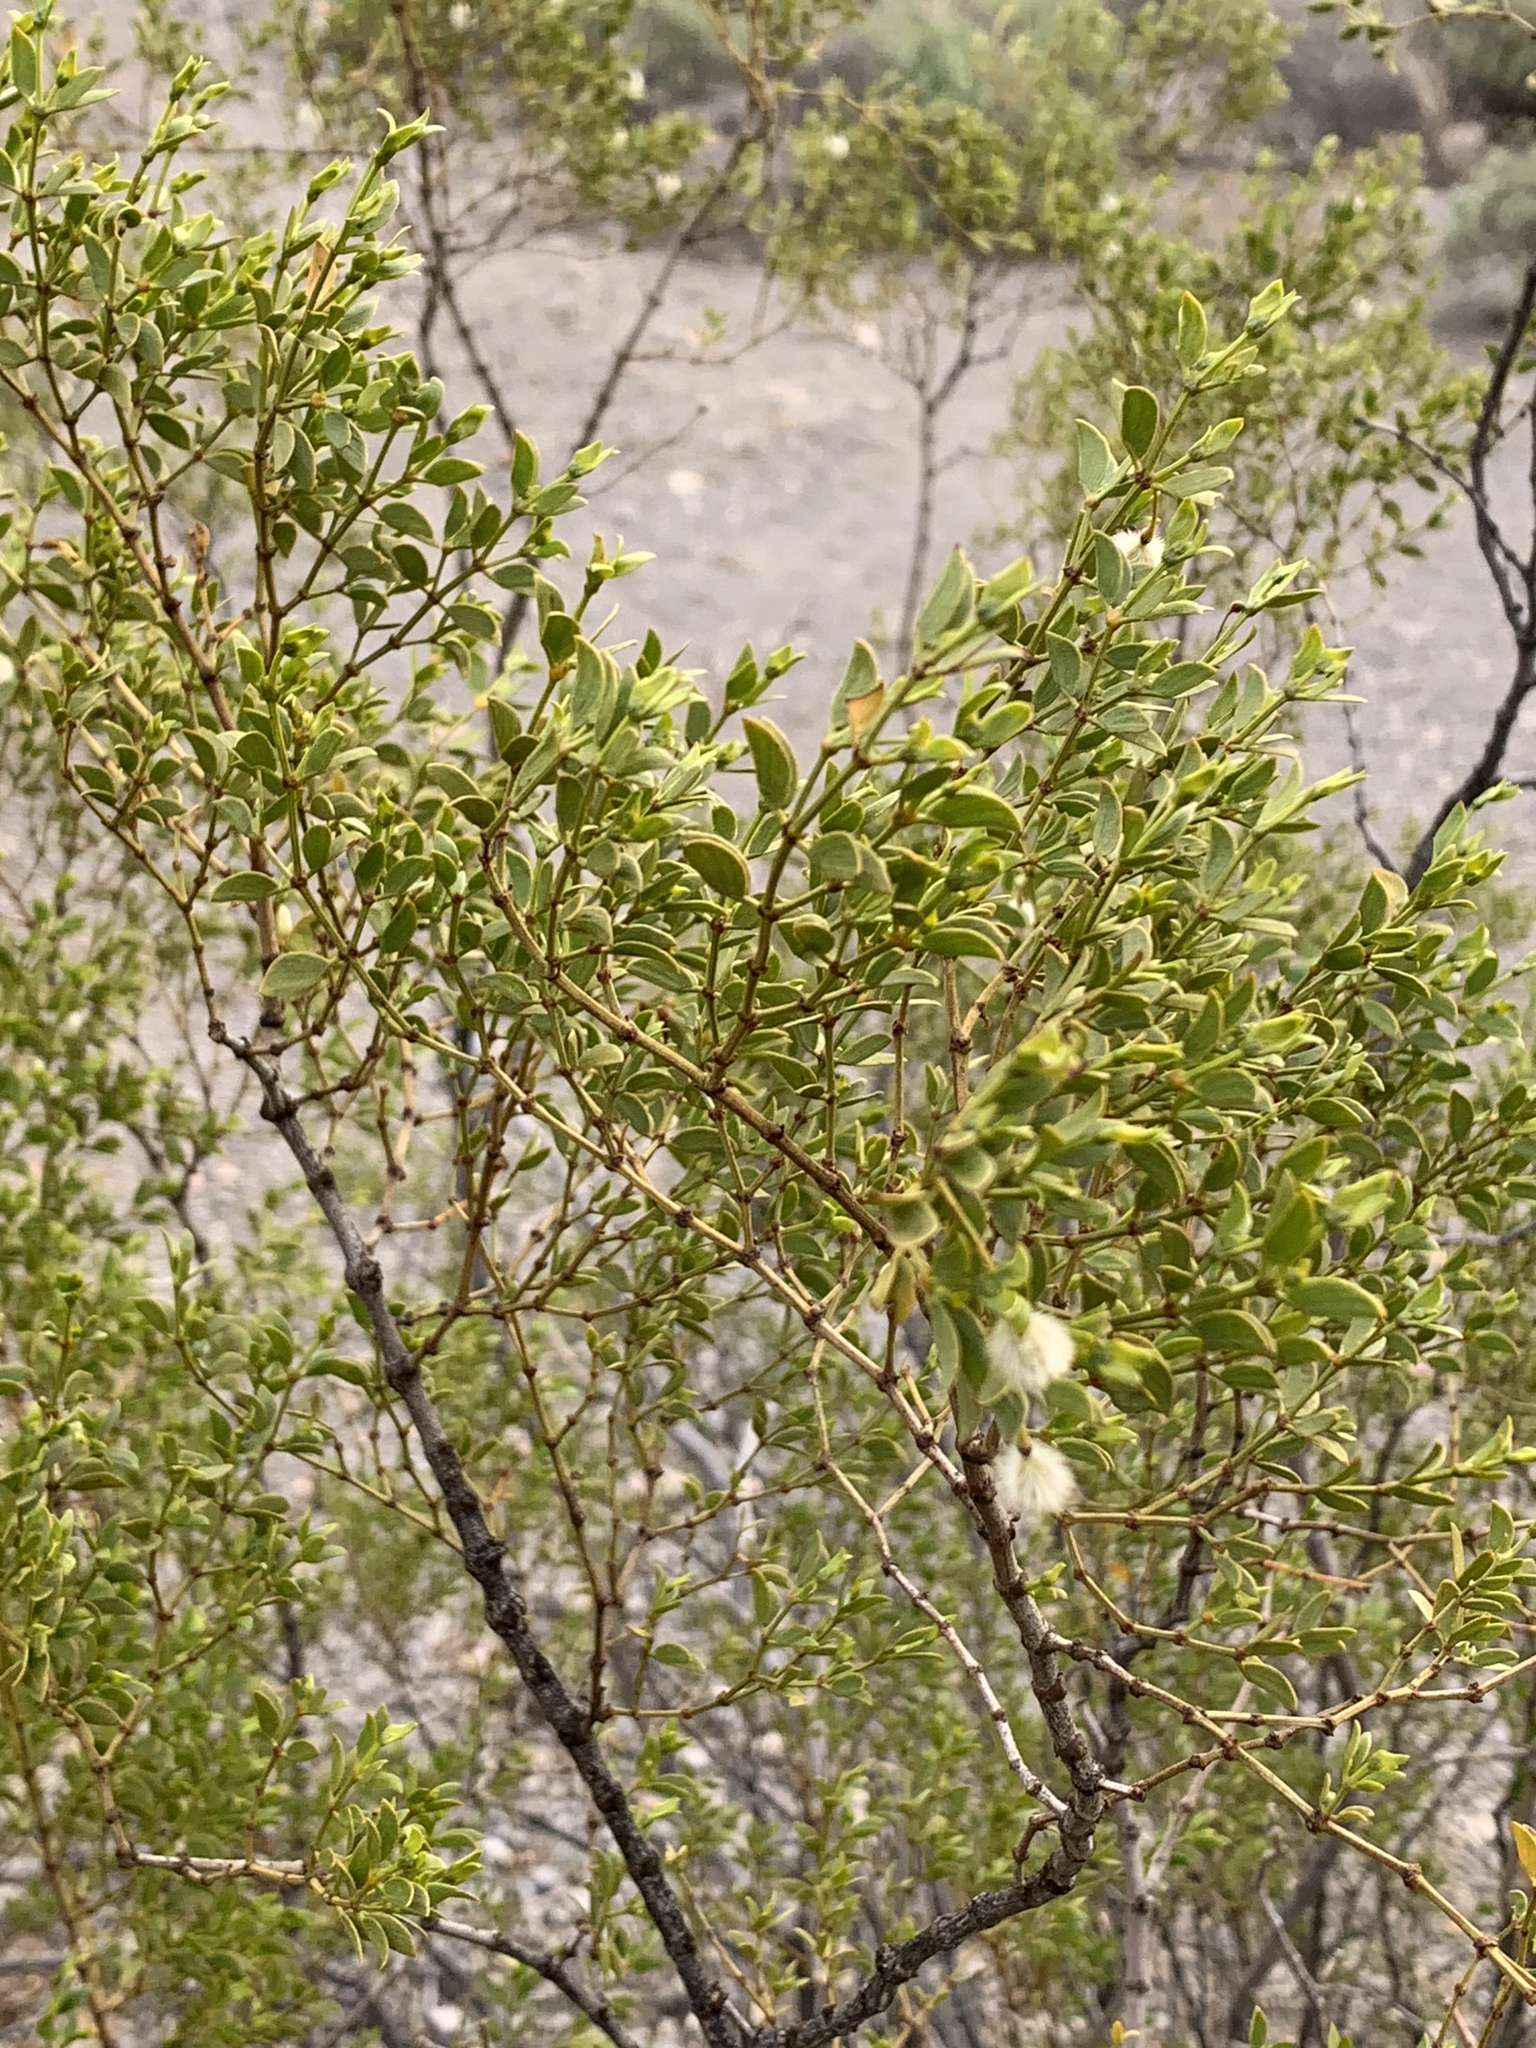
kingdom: Plantae
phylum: Tracheophyta
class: Magnoliopsida
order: Zygophyllales
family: Zygophyllaceae
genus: Larrea
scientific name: Larrea tridentata
